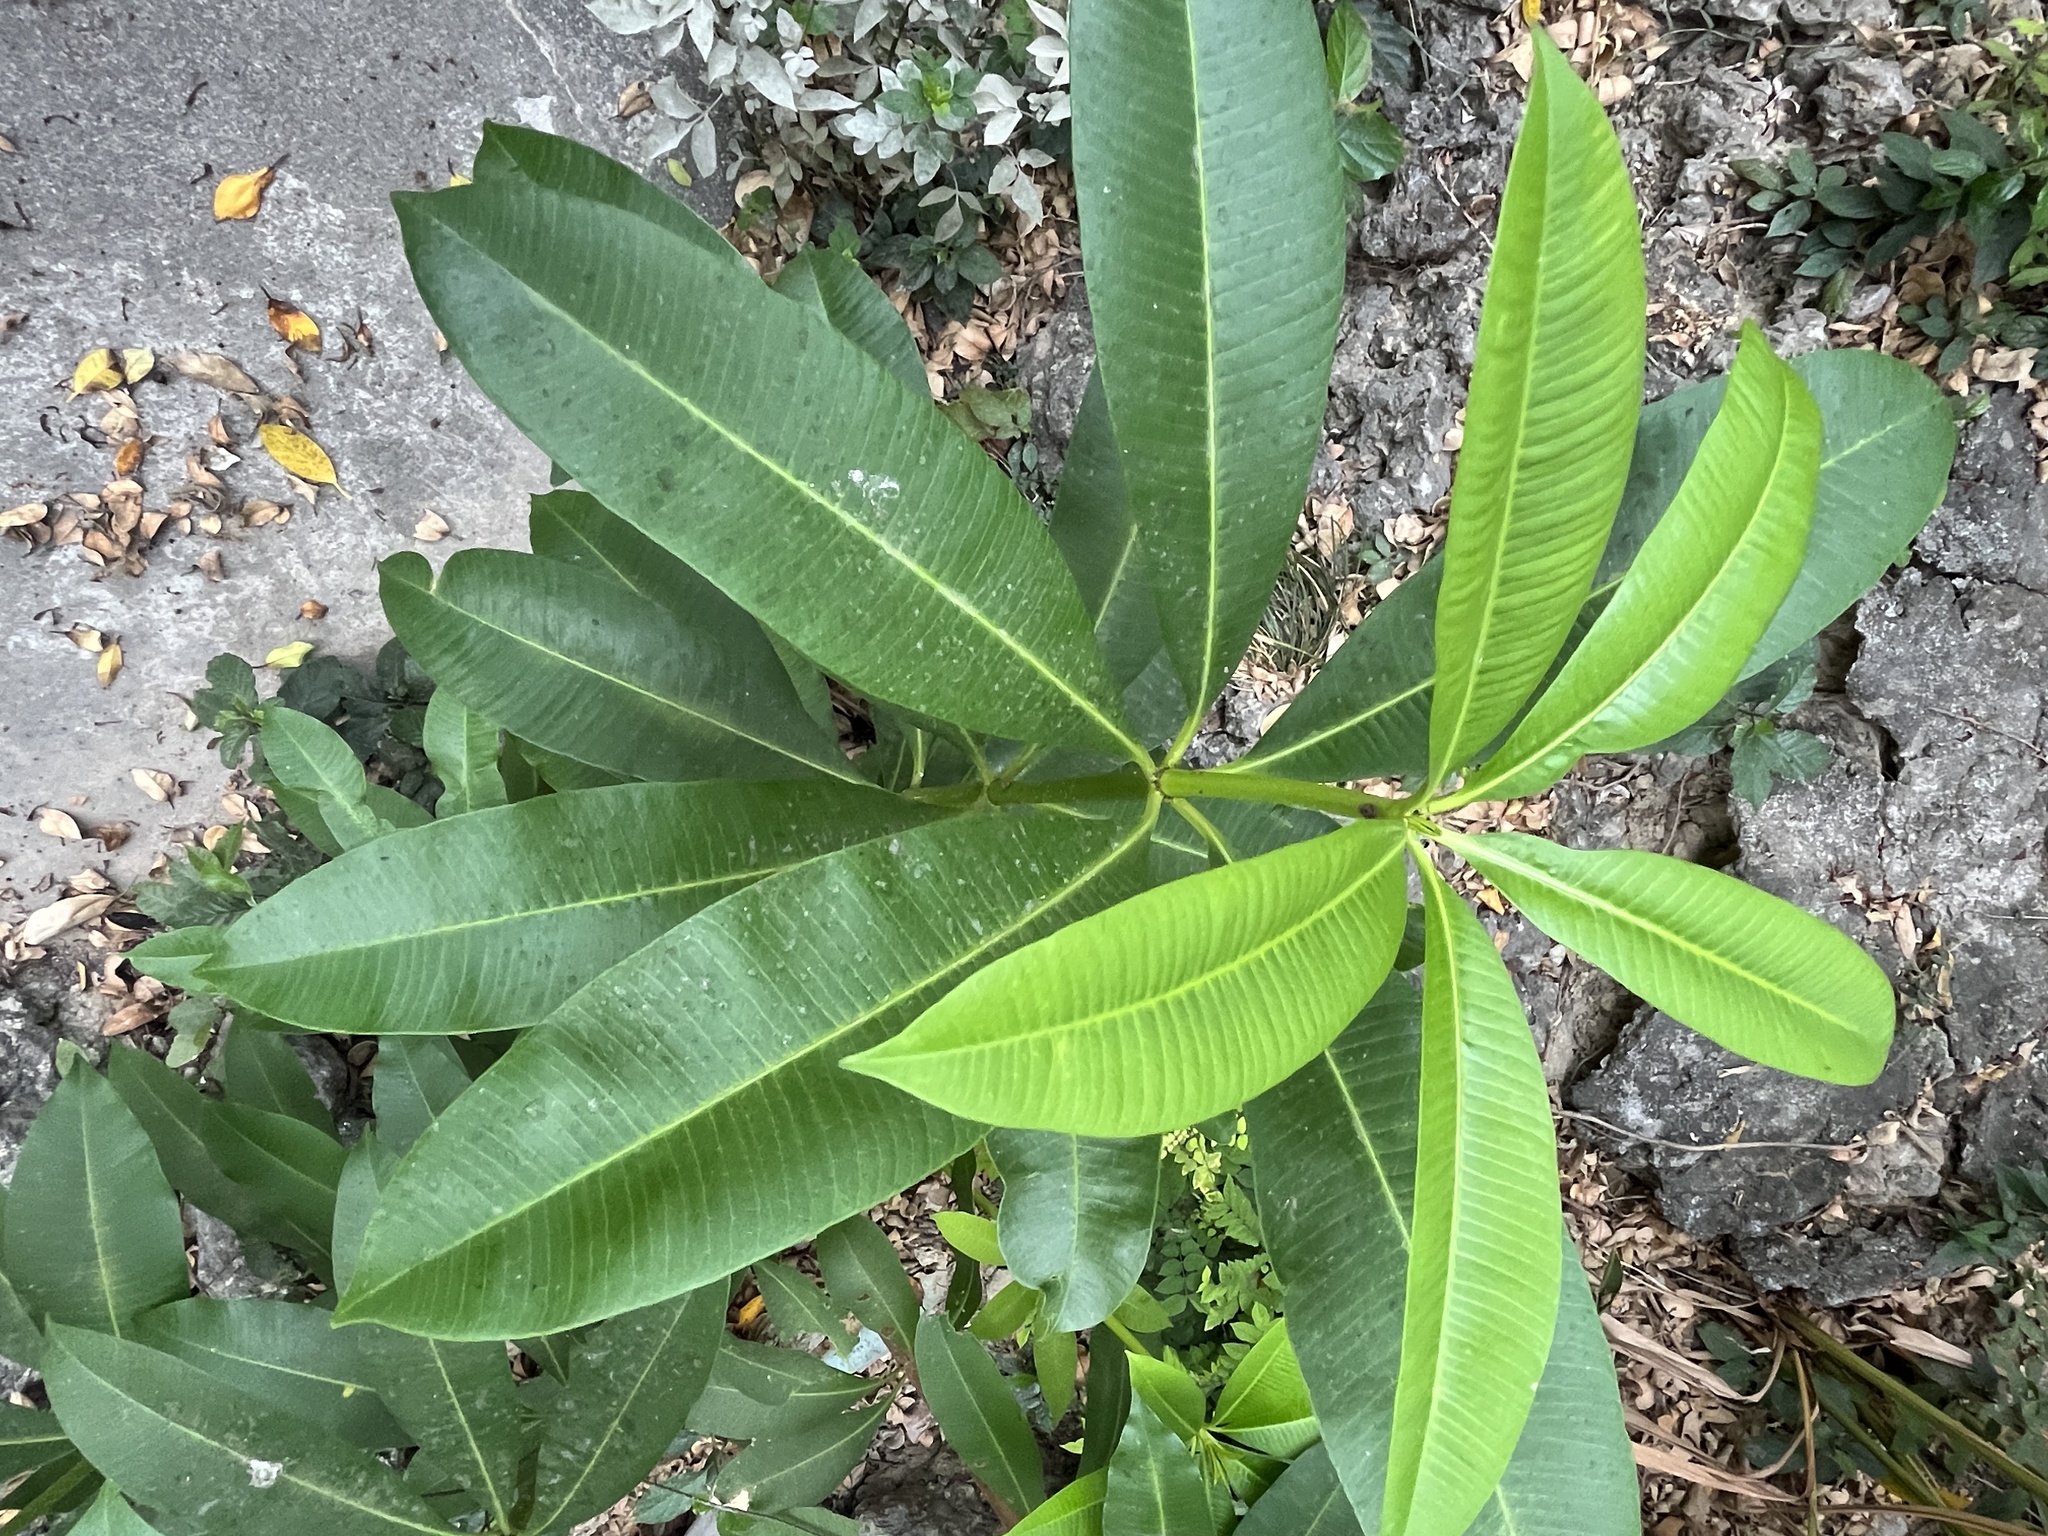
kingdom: Plantae
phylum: Tracheophyta
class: Magnoliopsida
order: Gentianales
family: Apocynaceae
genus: Alstonia
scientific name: Alstonia scholaris
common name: White cheesewood
